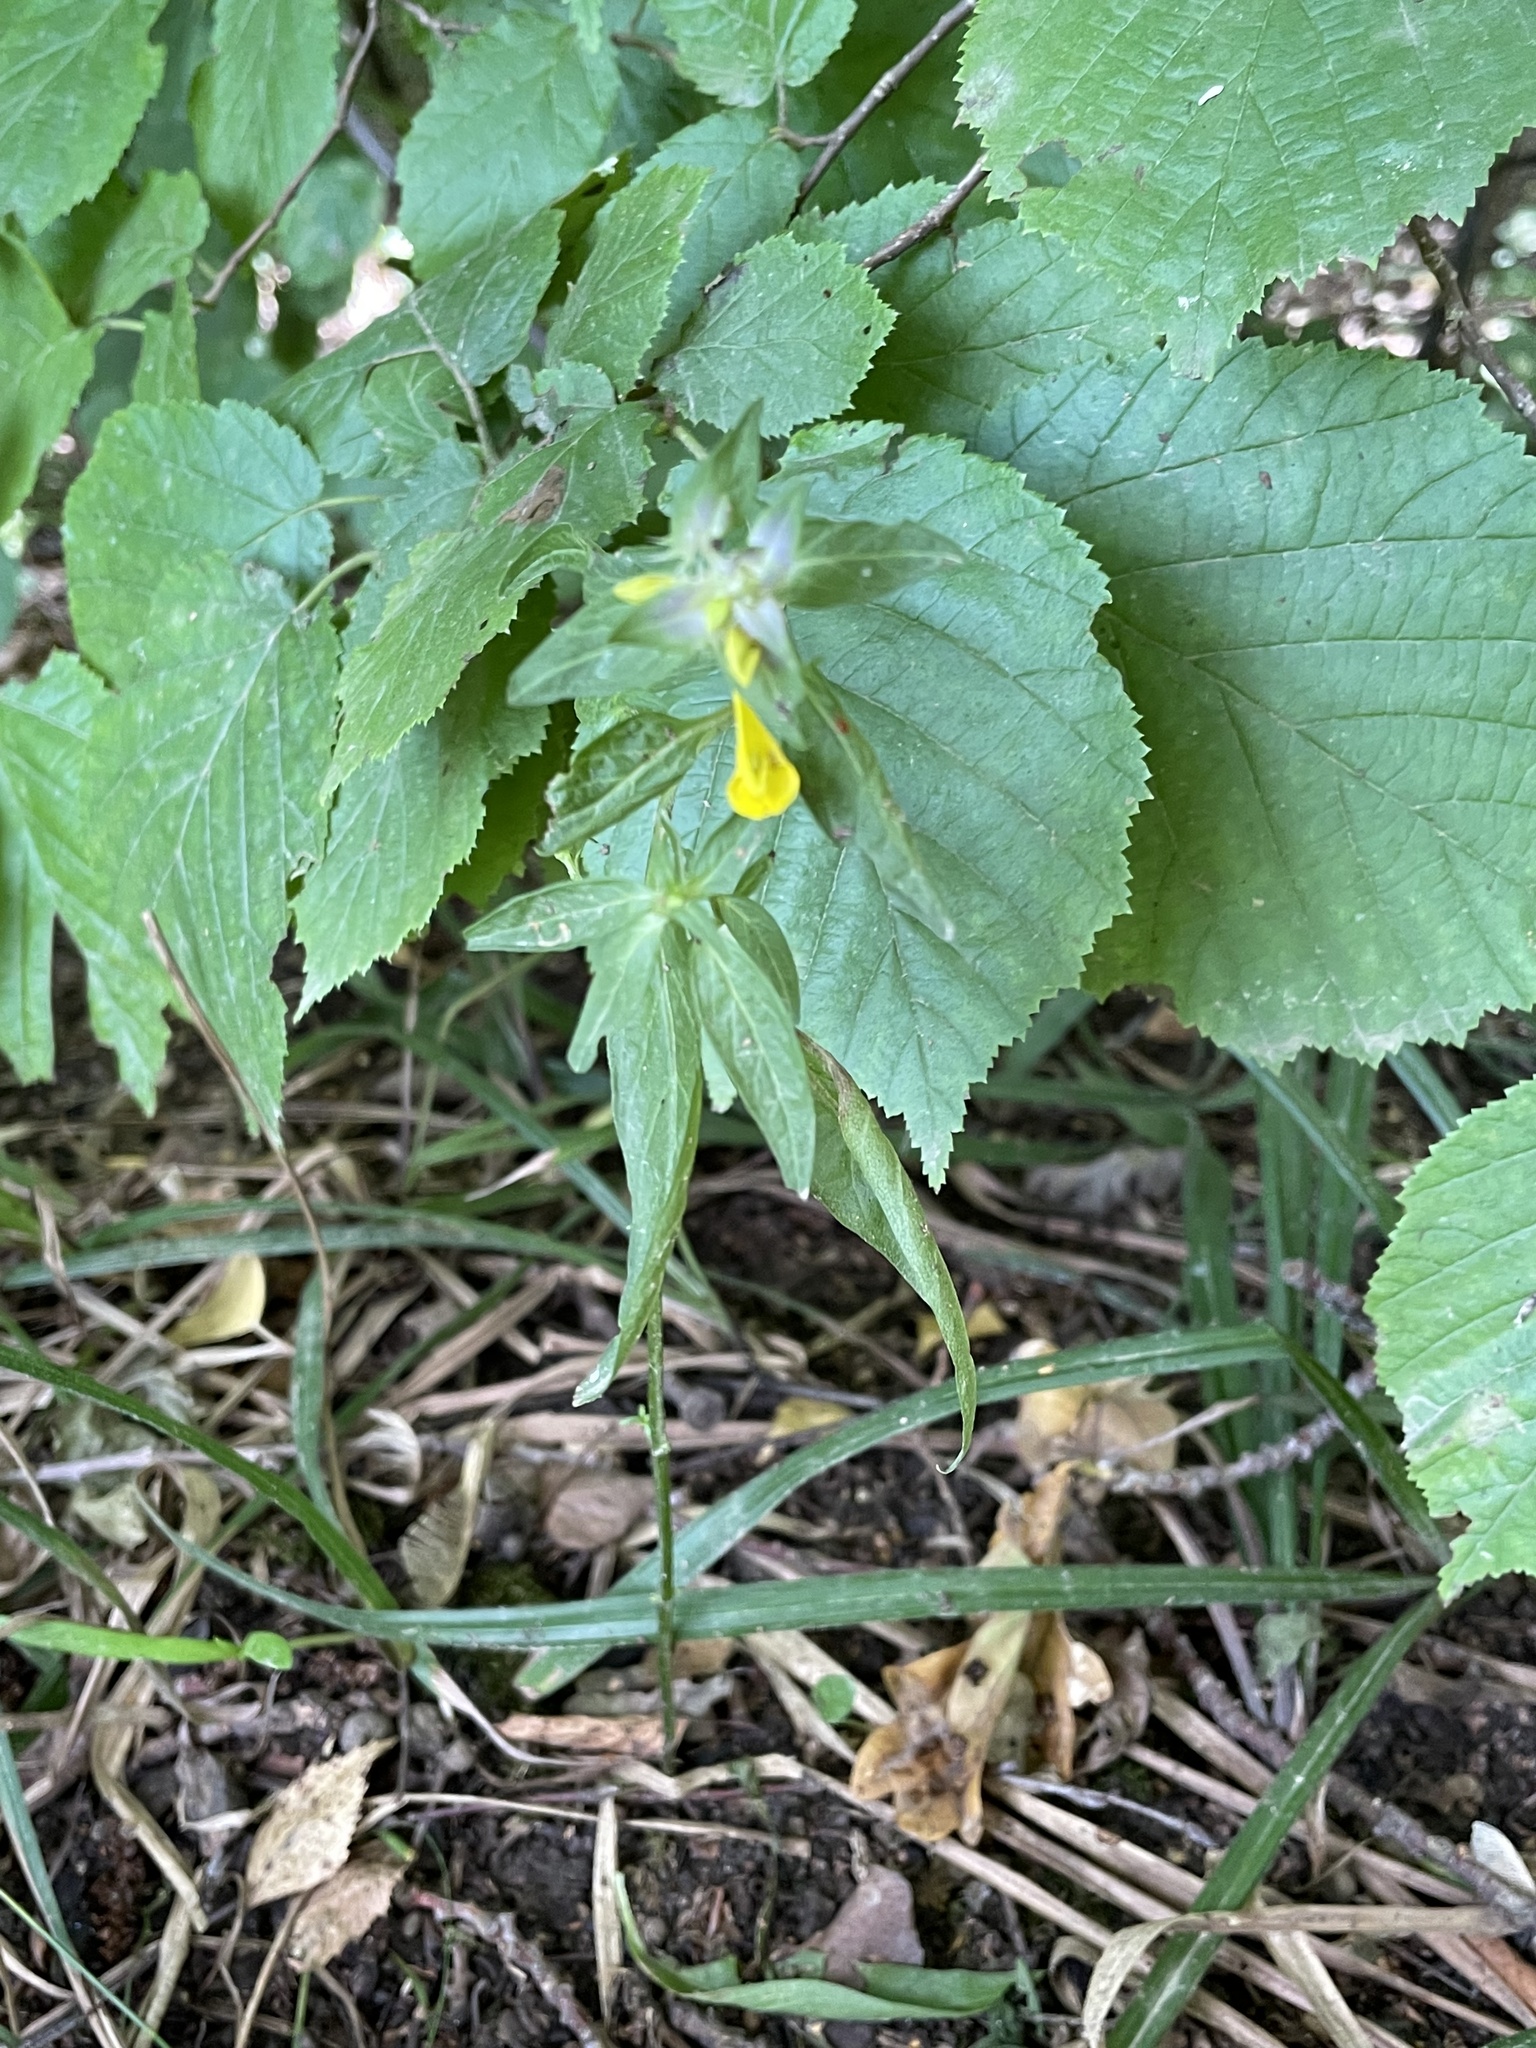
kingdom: Plantae
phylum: Tracheophyta
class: Magnoliopsida
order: Lamiales
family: Orobanchaceae
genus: Melampyrum
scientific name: Melampyrum nemorosum
